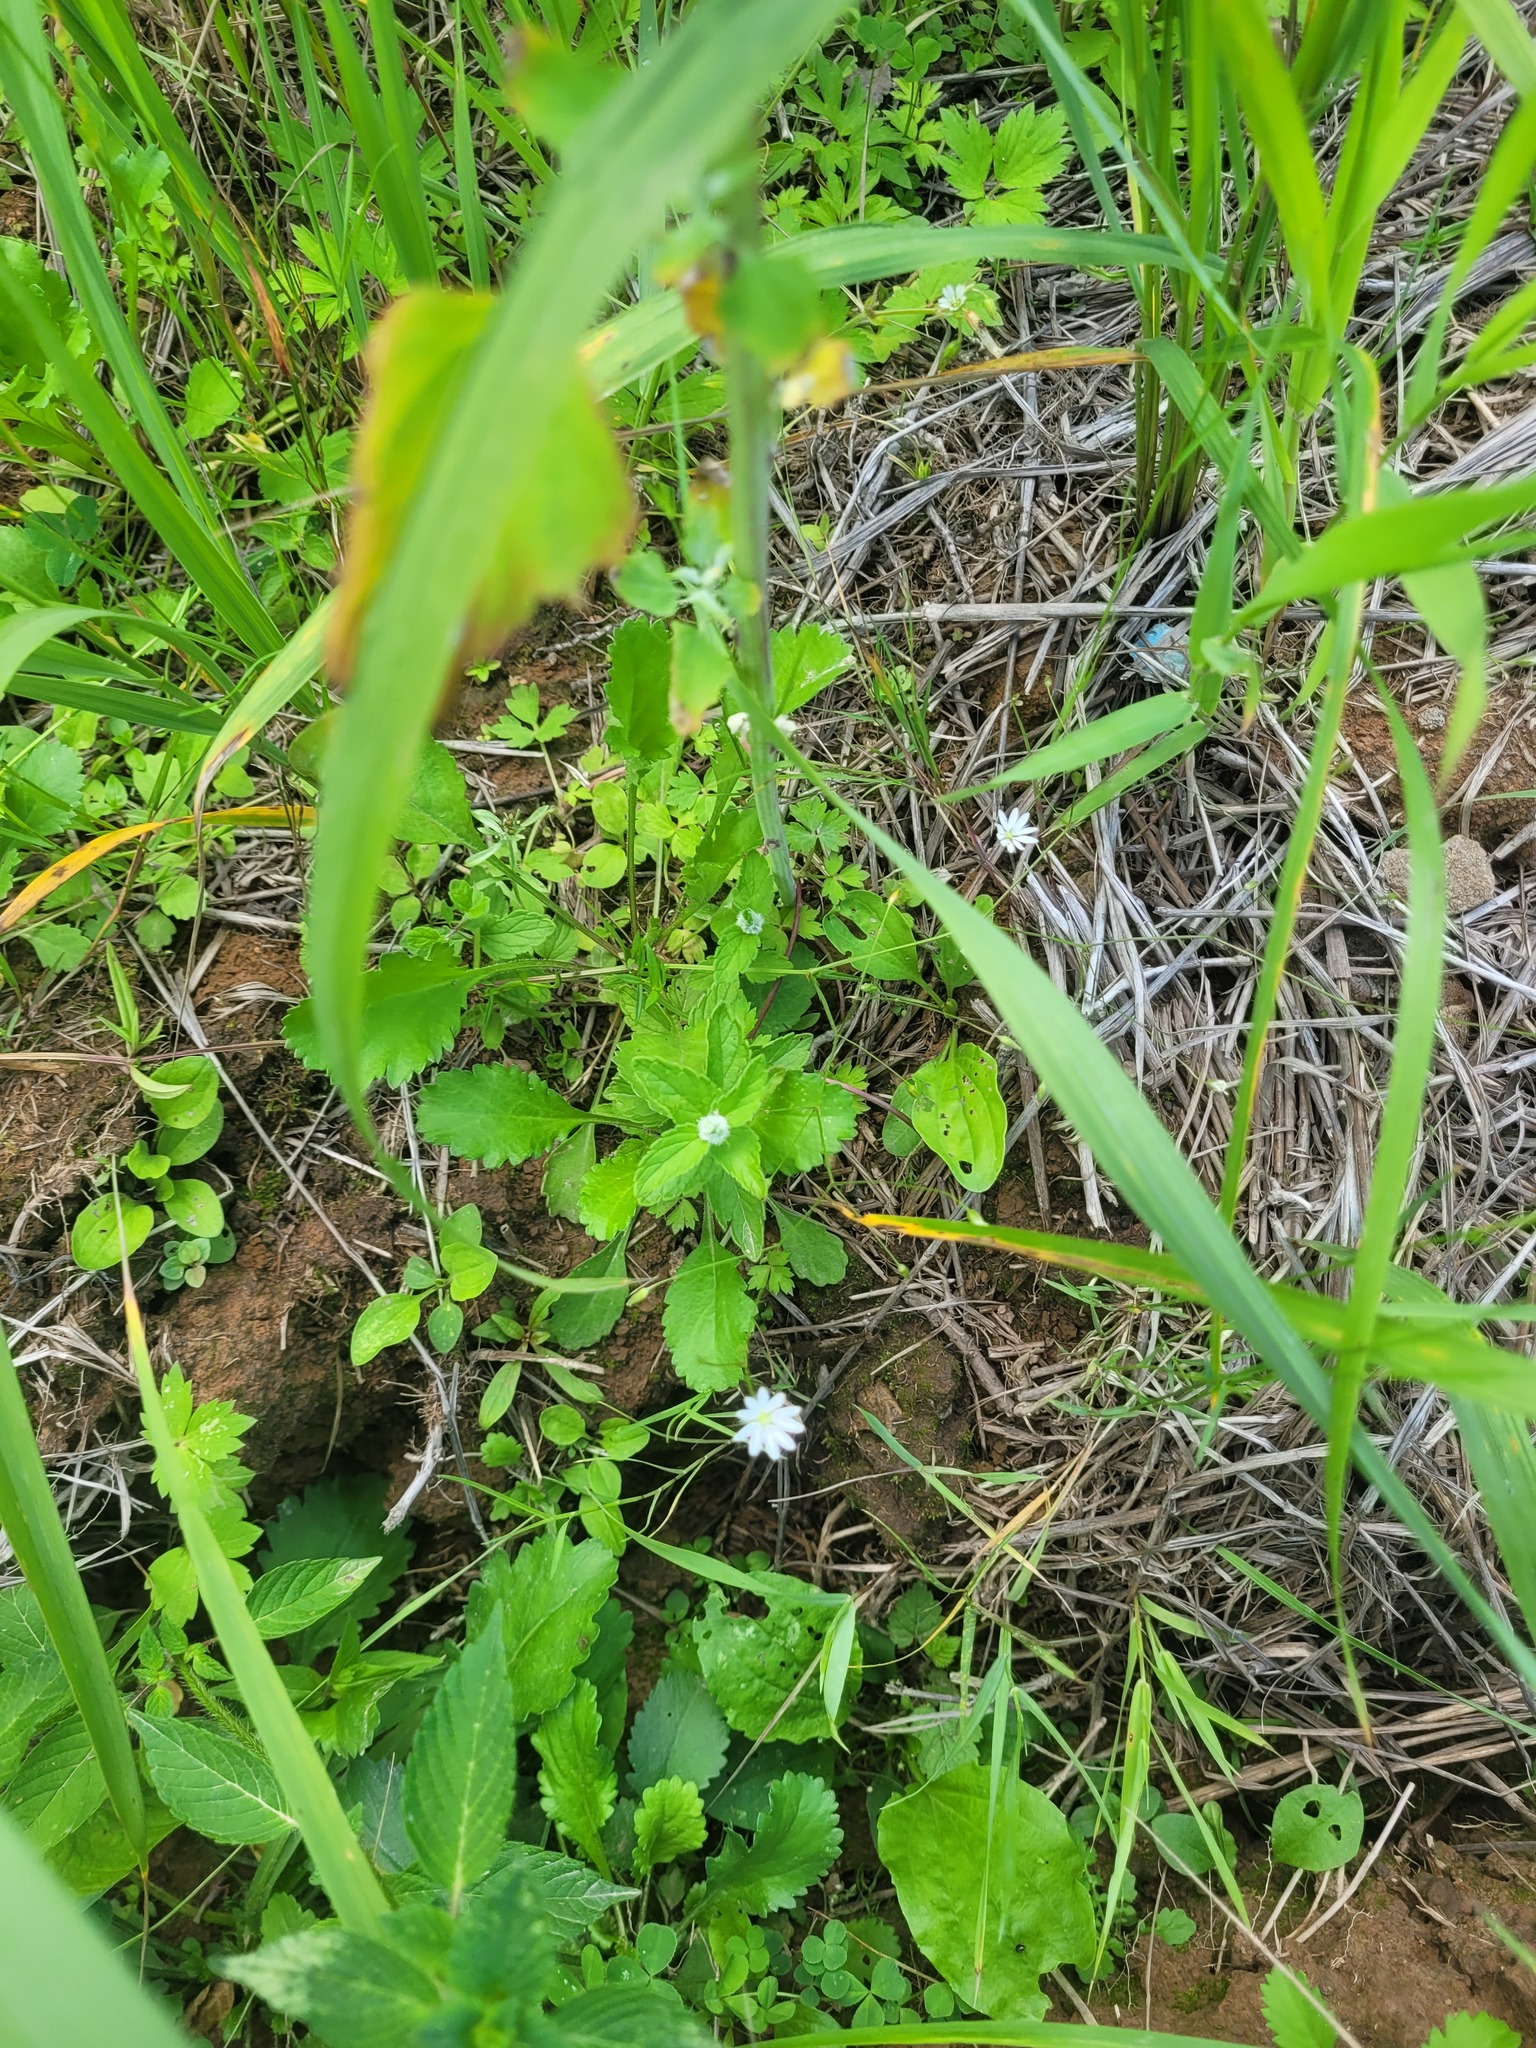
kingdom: Plantae
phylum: Tracheophyta
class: Magnoliopsida
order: Lamiales
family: Plantaginaceae
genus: Veronica
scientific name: Veronica chamaedrys
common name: Germander speedwell
